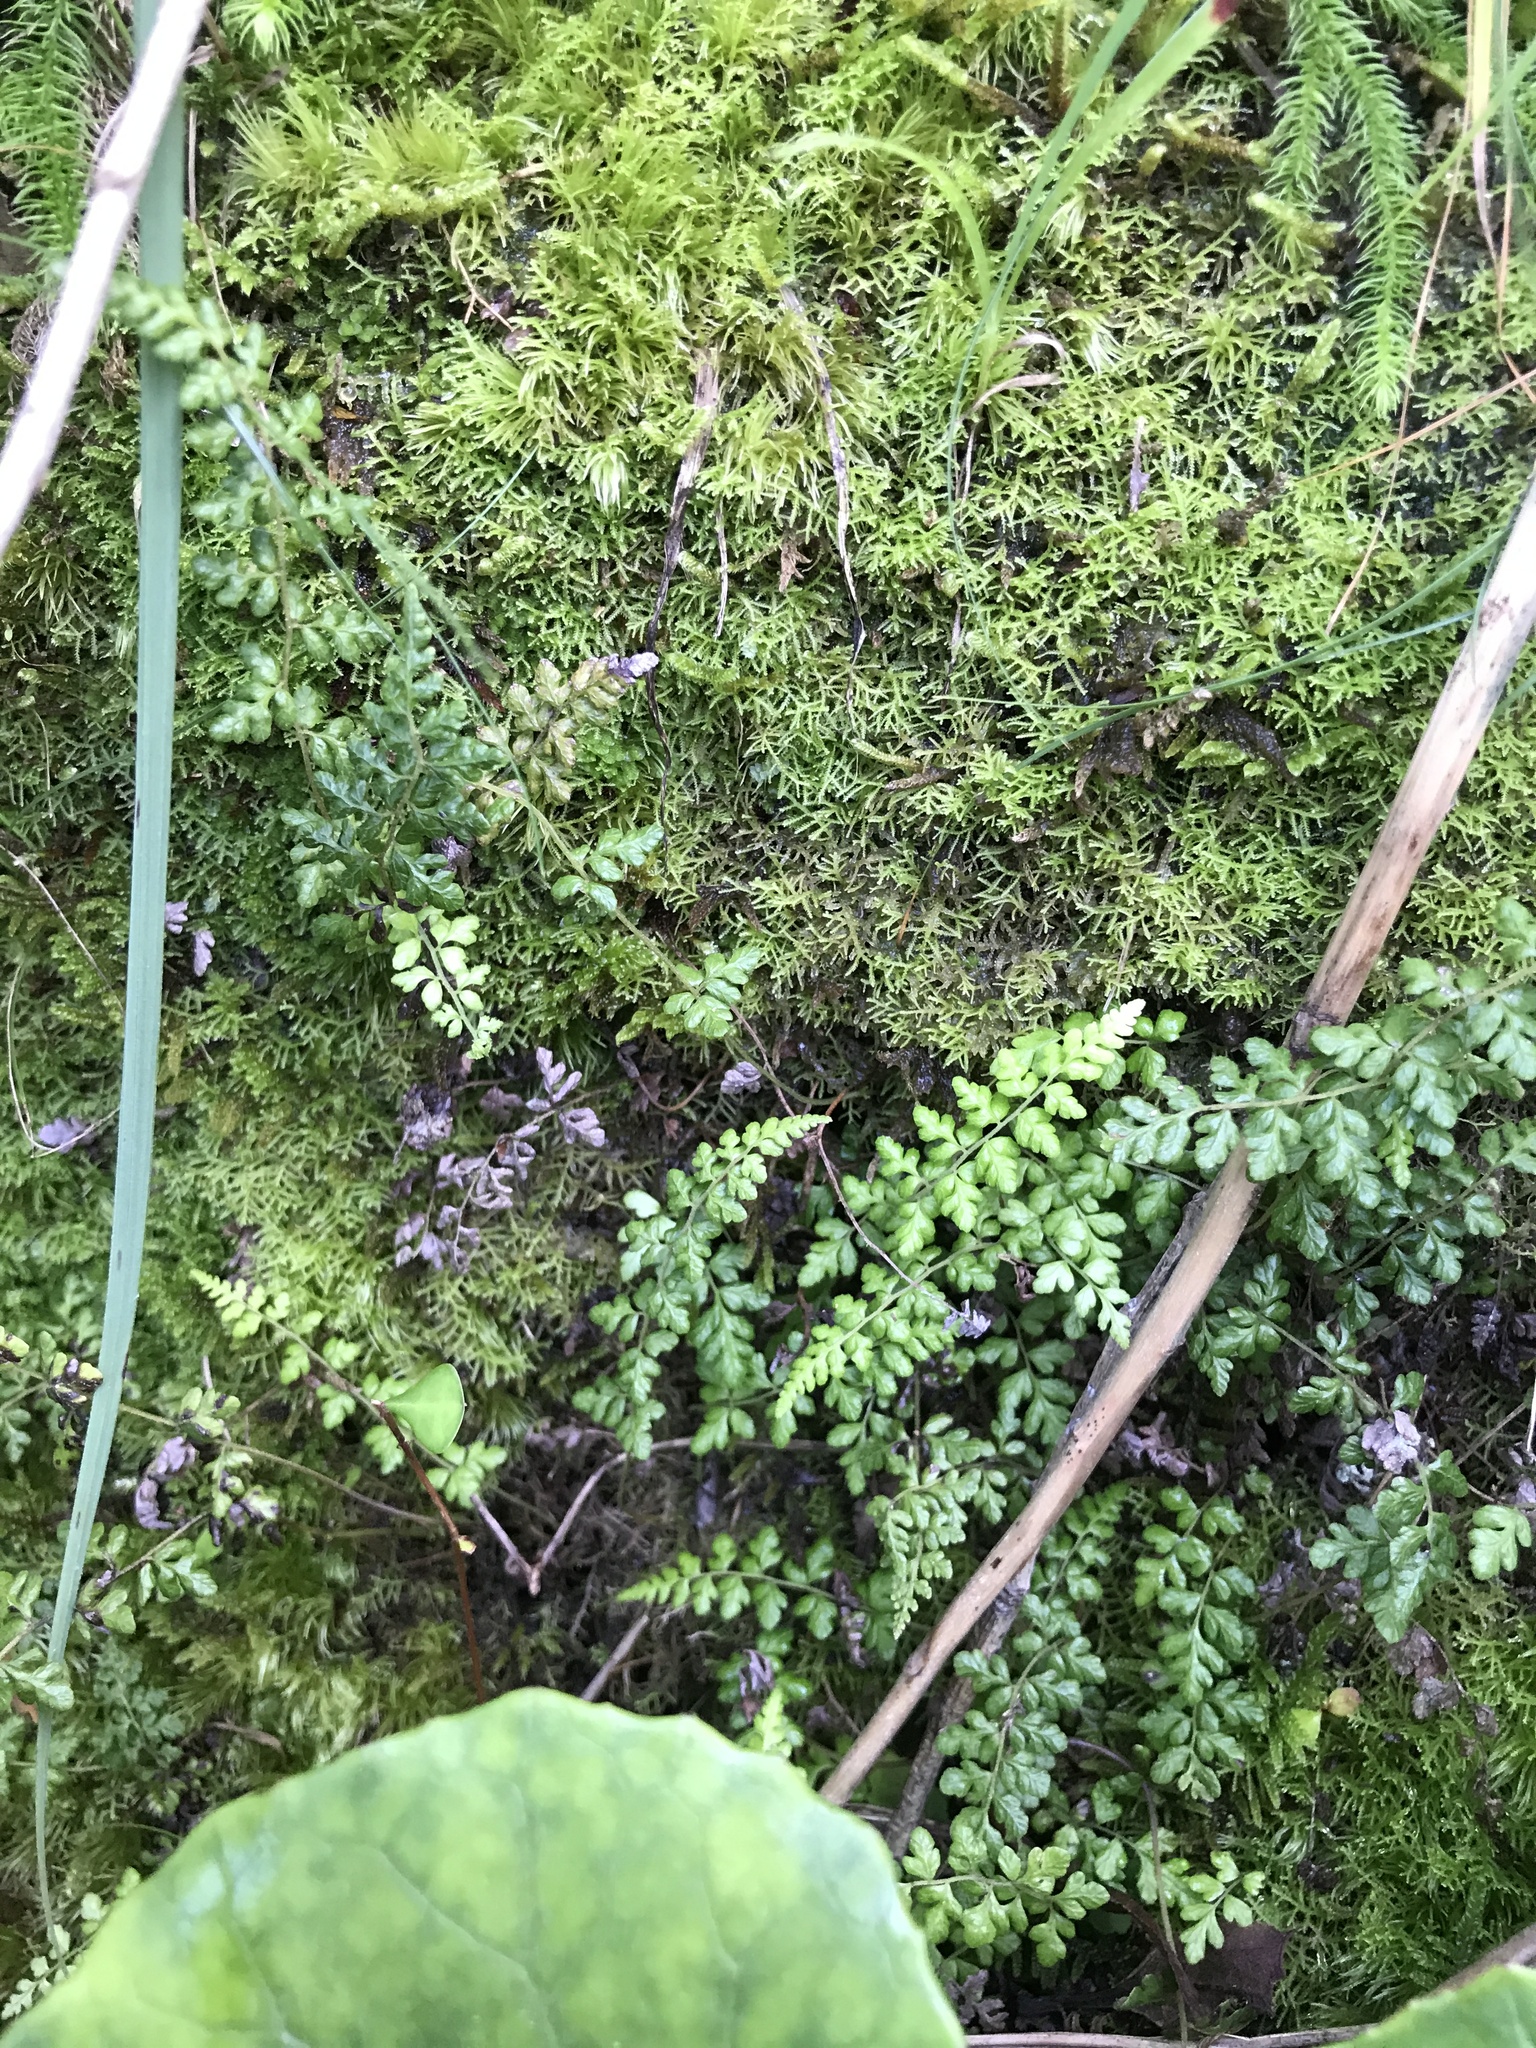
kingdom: Plantae
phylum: Tracheophyta
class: Polypodiopsida
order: Polypodiales
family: Thelypteridaceae
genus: Amauropelta
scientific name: Amauropelta cystopteroides
